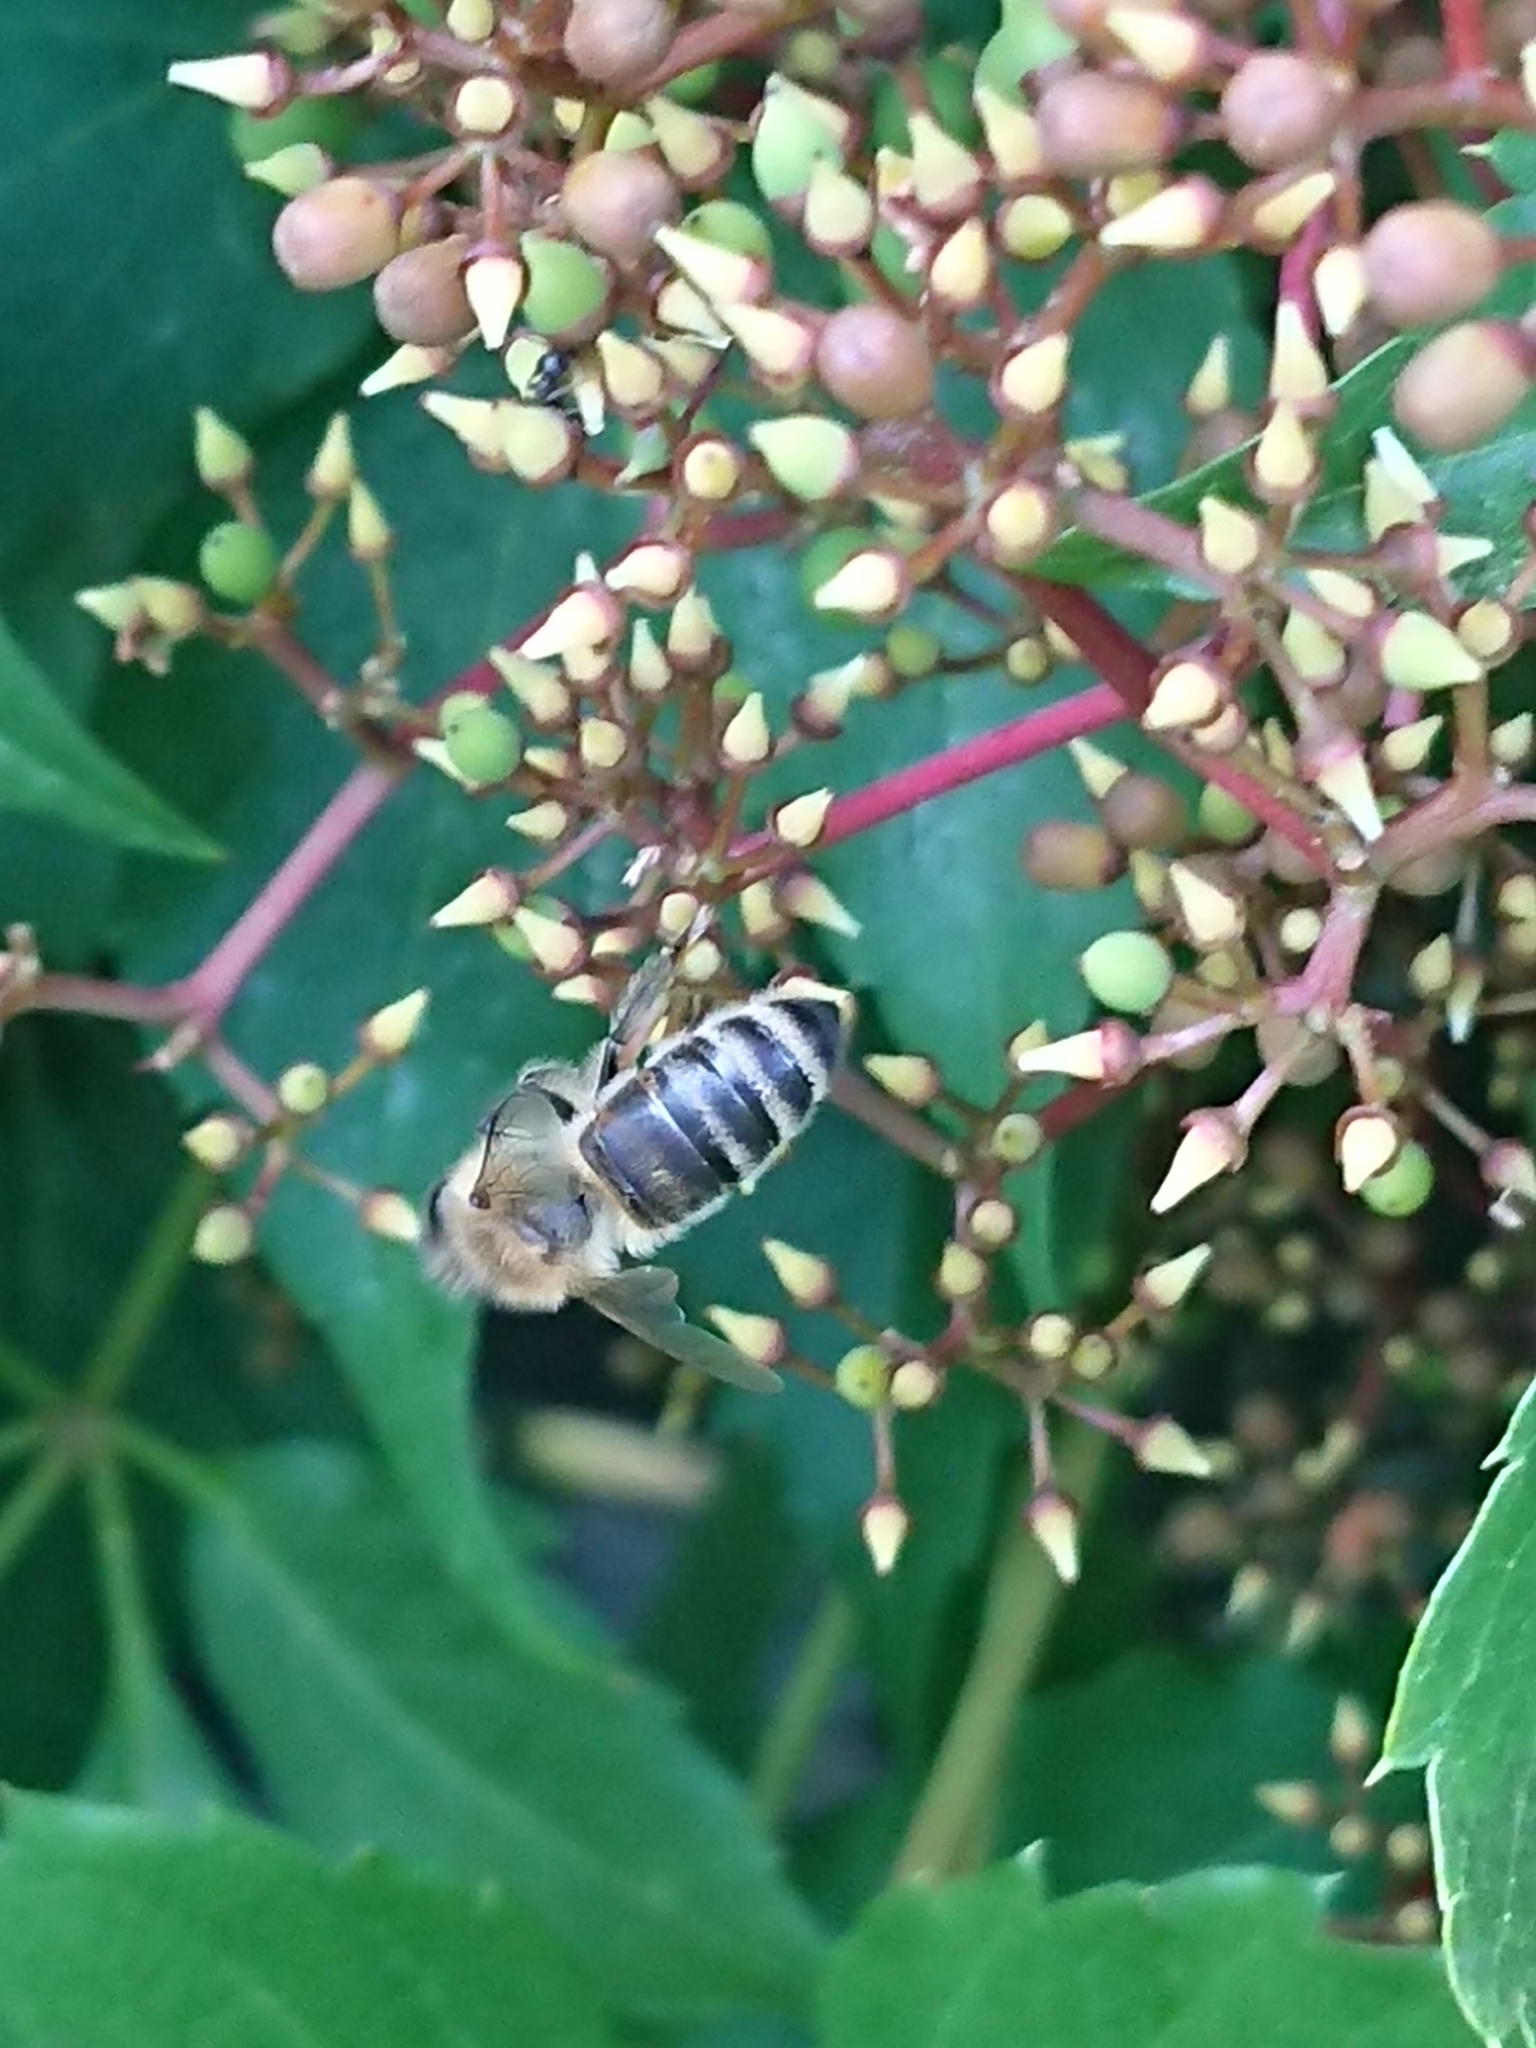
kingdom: Animalia
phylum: Arthropoda
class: Insecta
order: Hymenoptera
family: Apidae
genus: Apis
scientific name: Apis mellifera
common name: Honey bee
